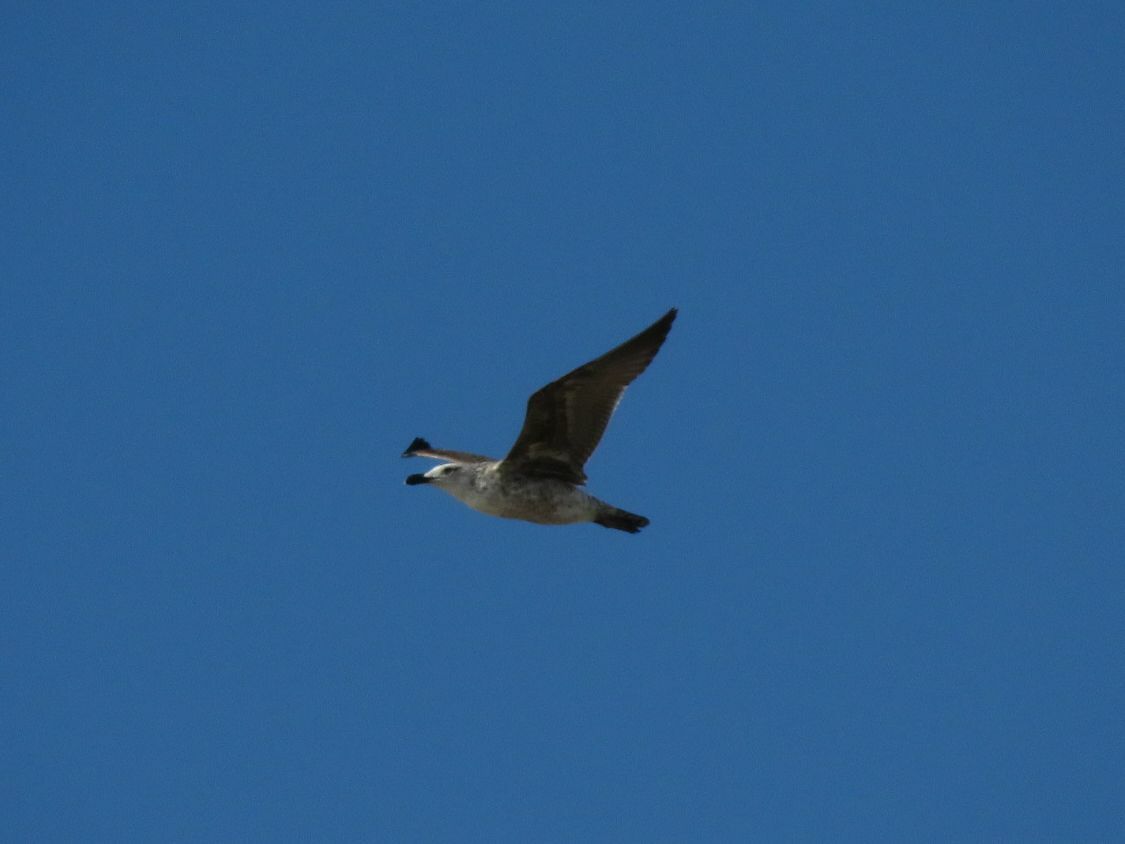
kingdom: Animalia
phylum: Chordata
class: Aves
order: Charadriiformes
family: Laridae
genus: Larus
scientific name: Larus dominicanus
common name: Kelp gull
